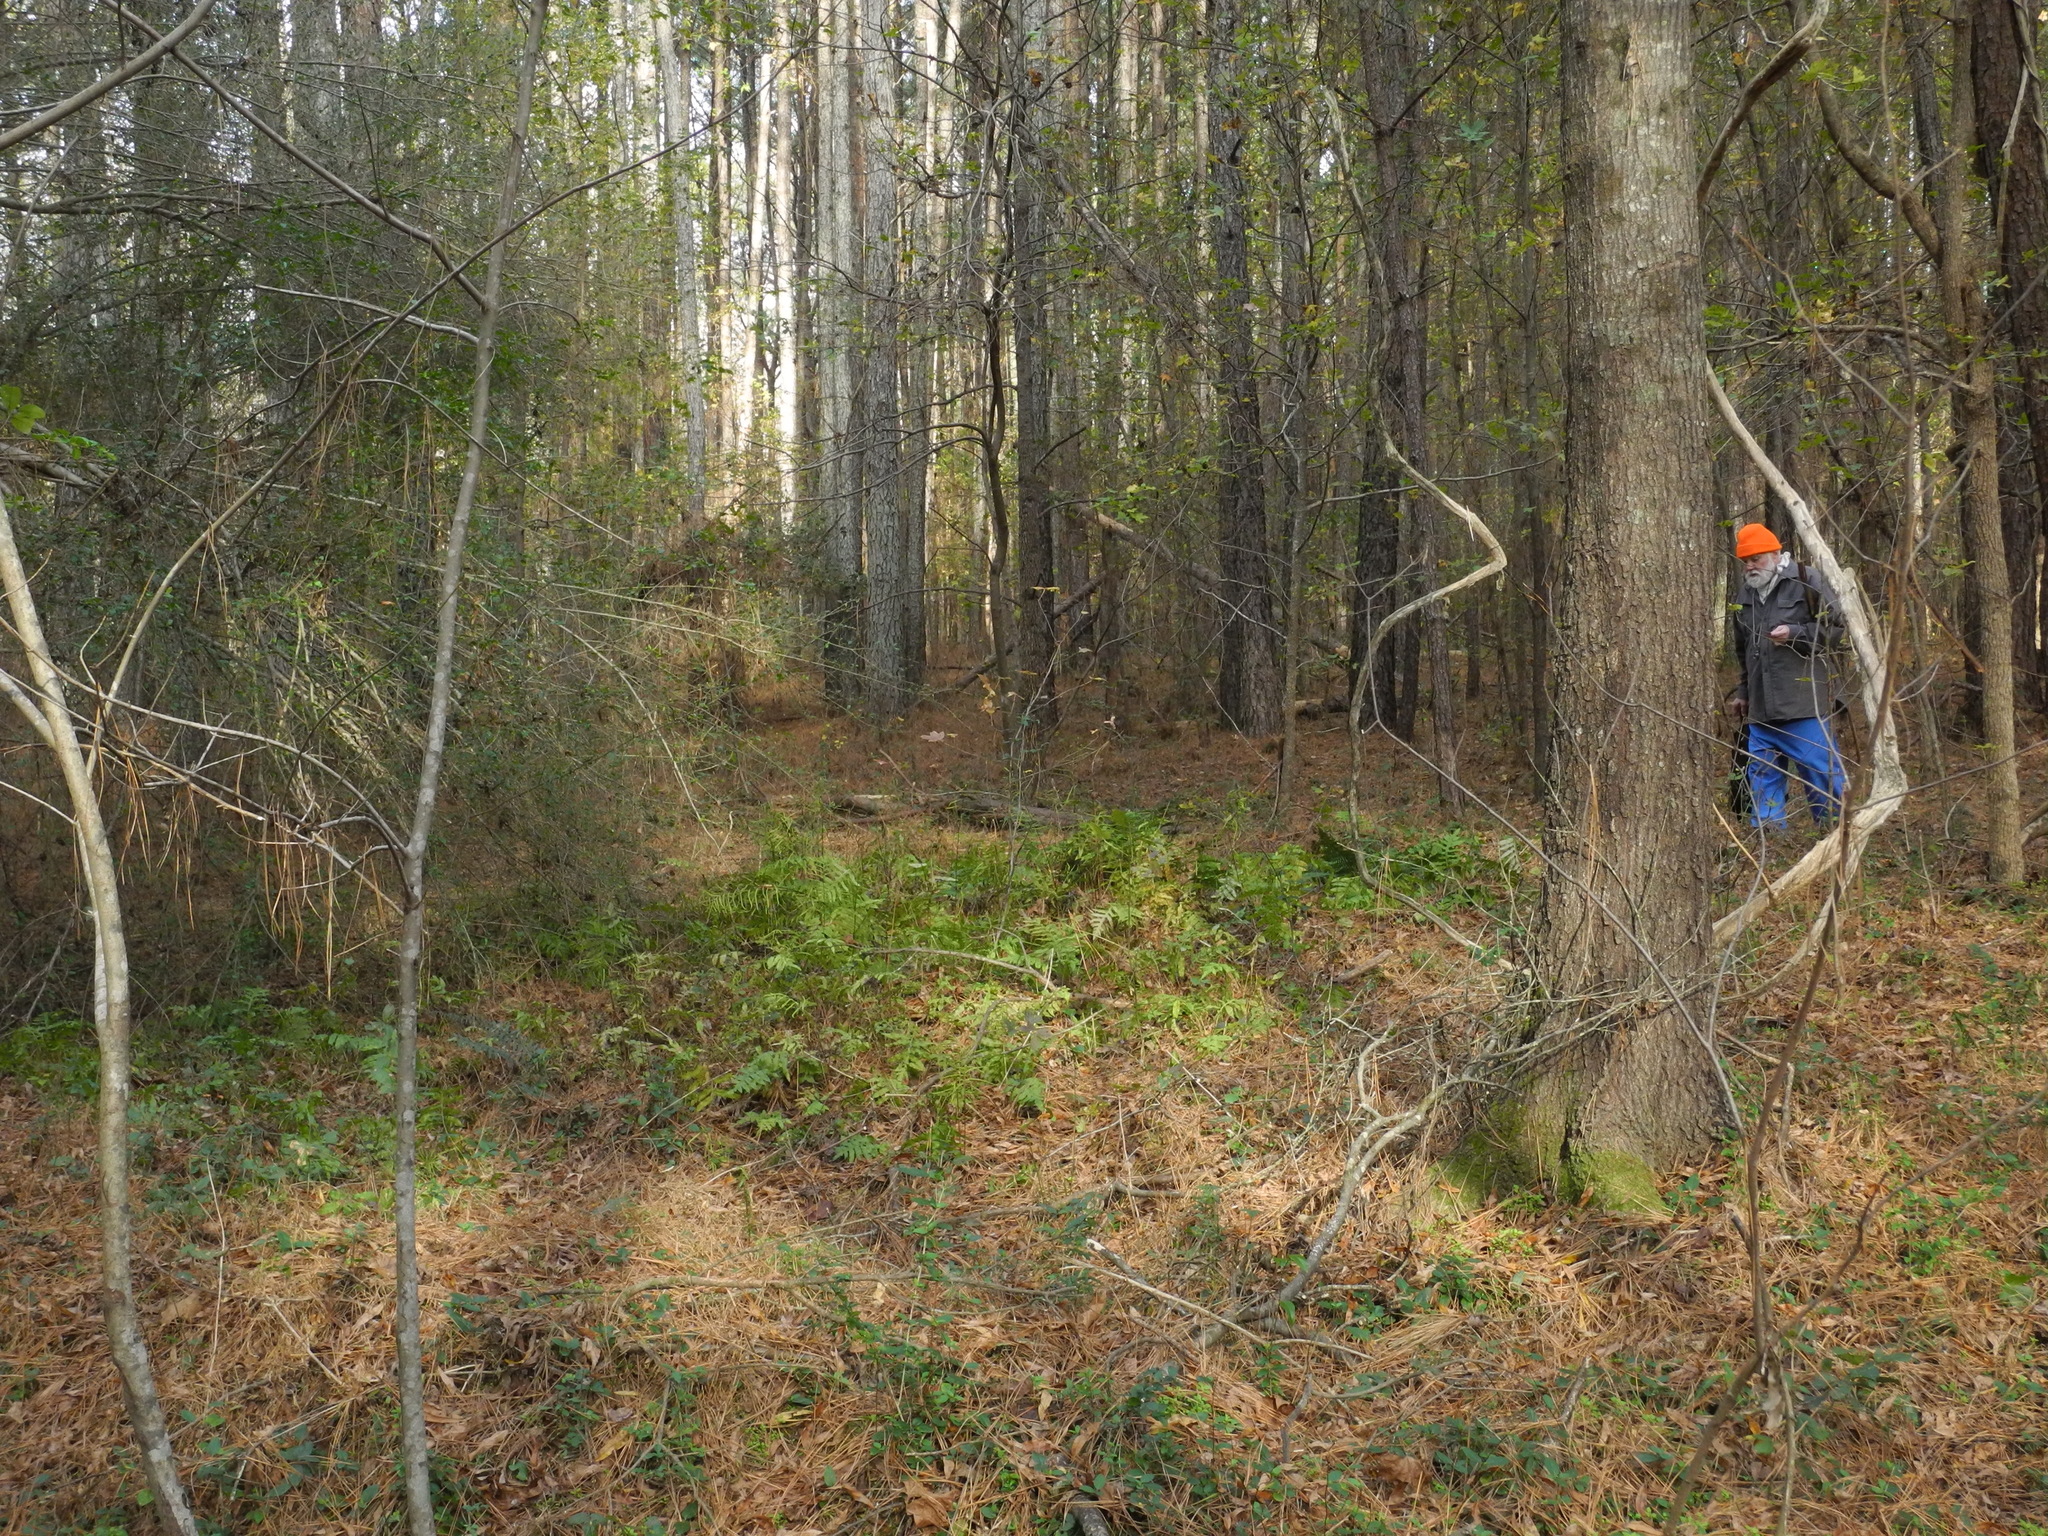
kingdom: Plantae
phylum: Tracheophyta
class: Polypodiopsida
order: Polypodiales
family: Dryopteridaceae
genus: Dryopteris
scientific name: Dryopteris intermedia
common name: Evergreen wood fern
